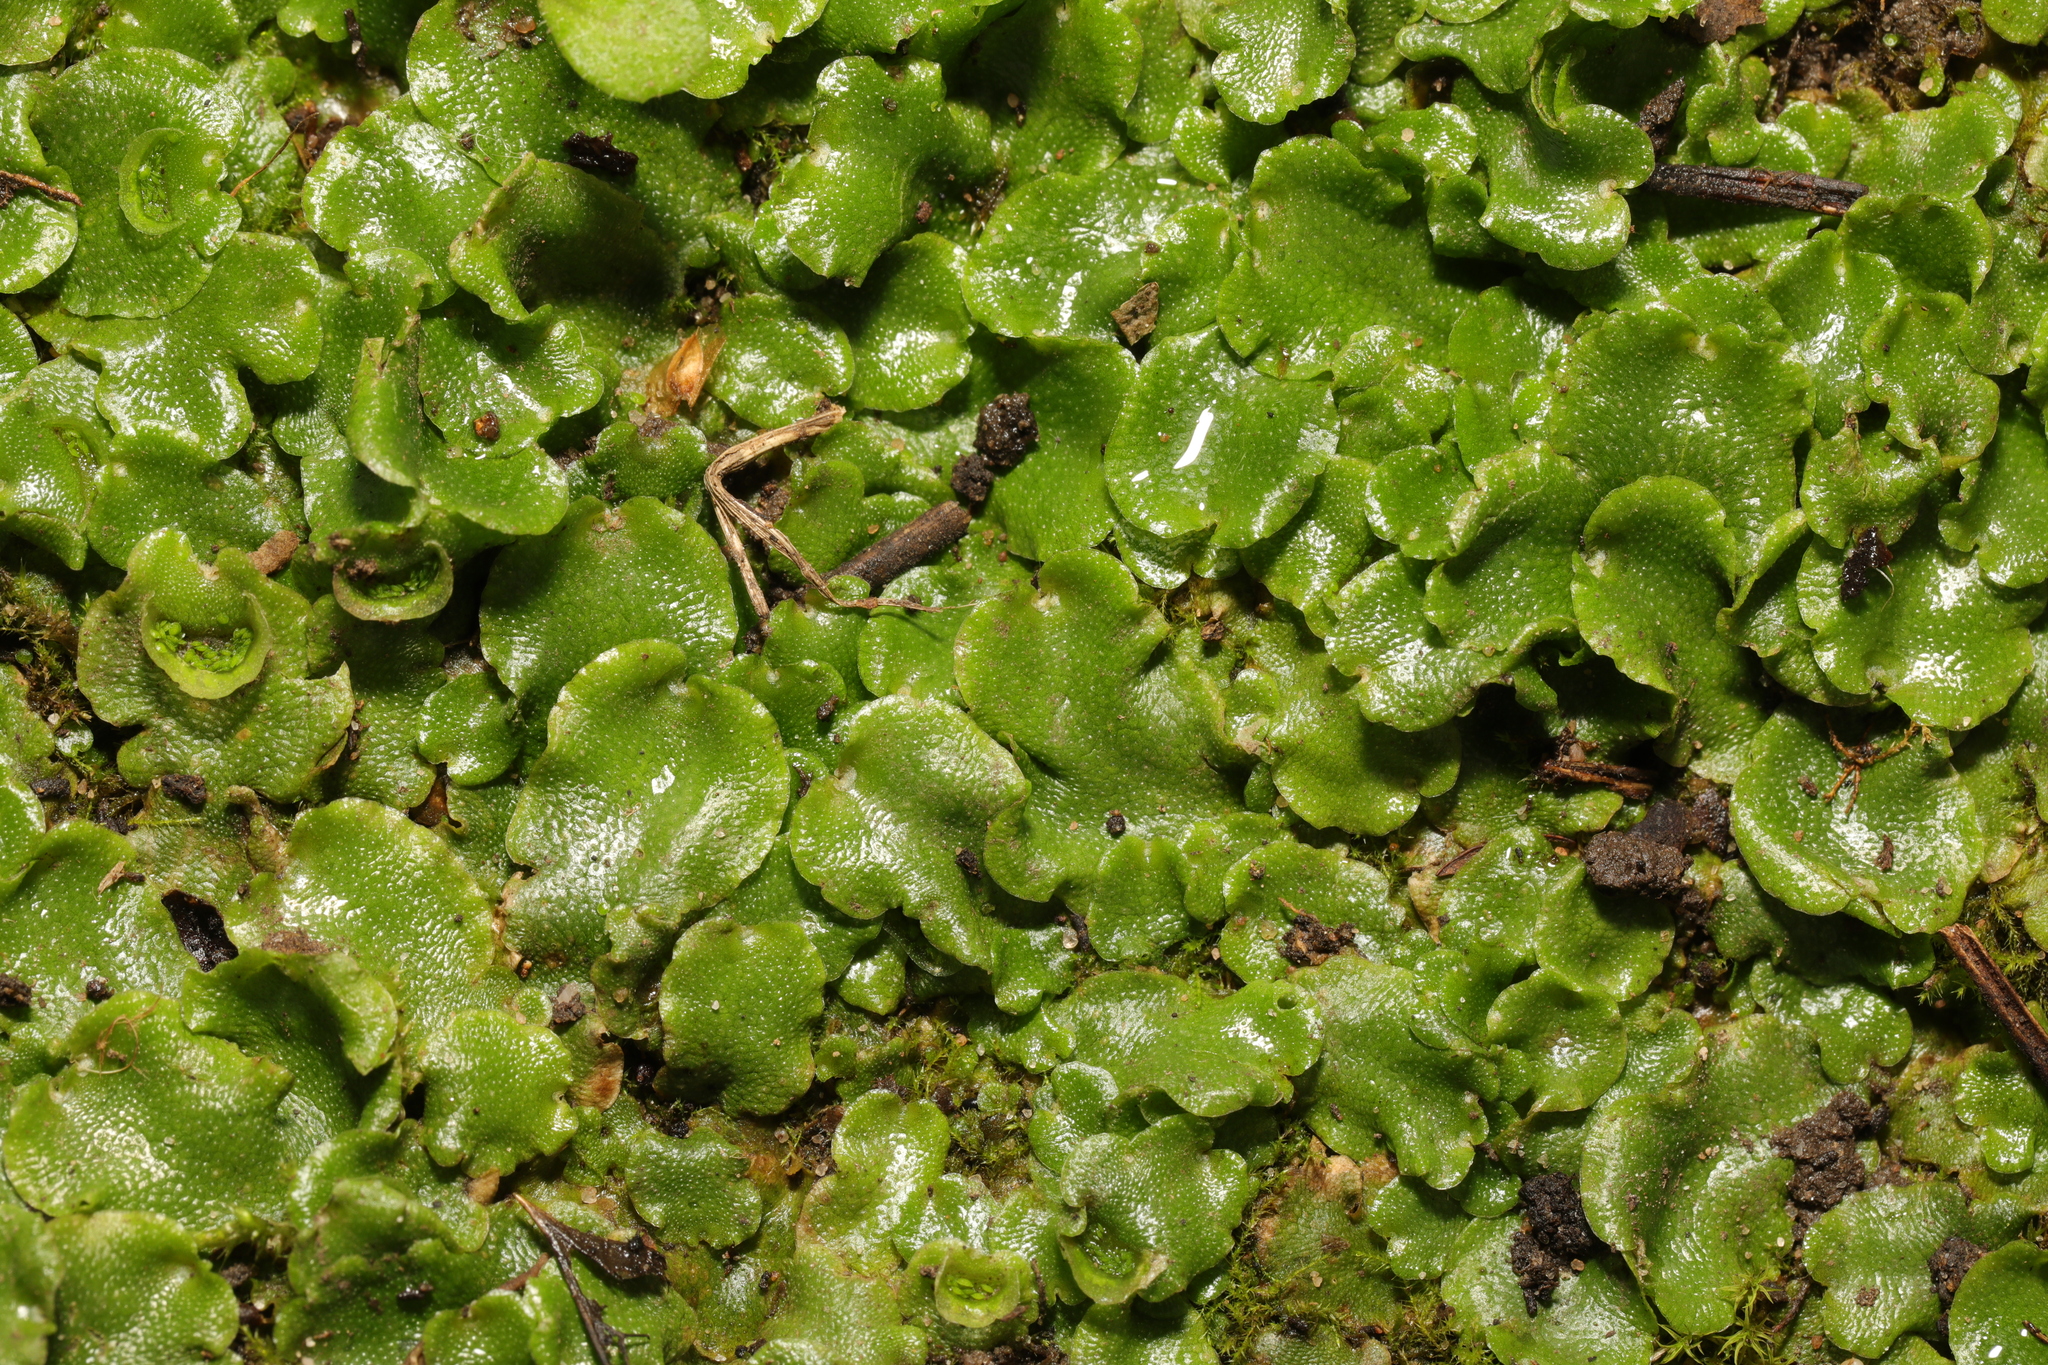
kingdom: Plantae
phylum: Marchantiophyta
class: Marchantiopsida
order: Lunulariales
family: Lunulariaceae
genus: Lunularia
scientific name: Lunularia cruciata
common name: Crescent-cup liverwort
